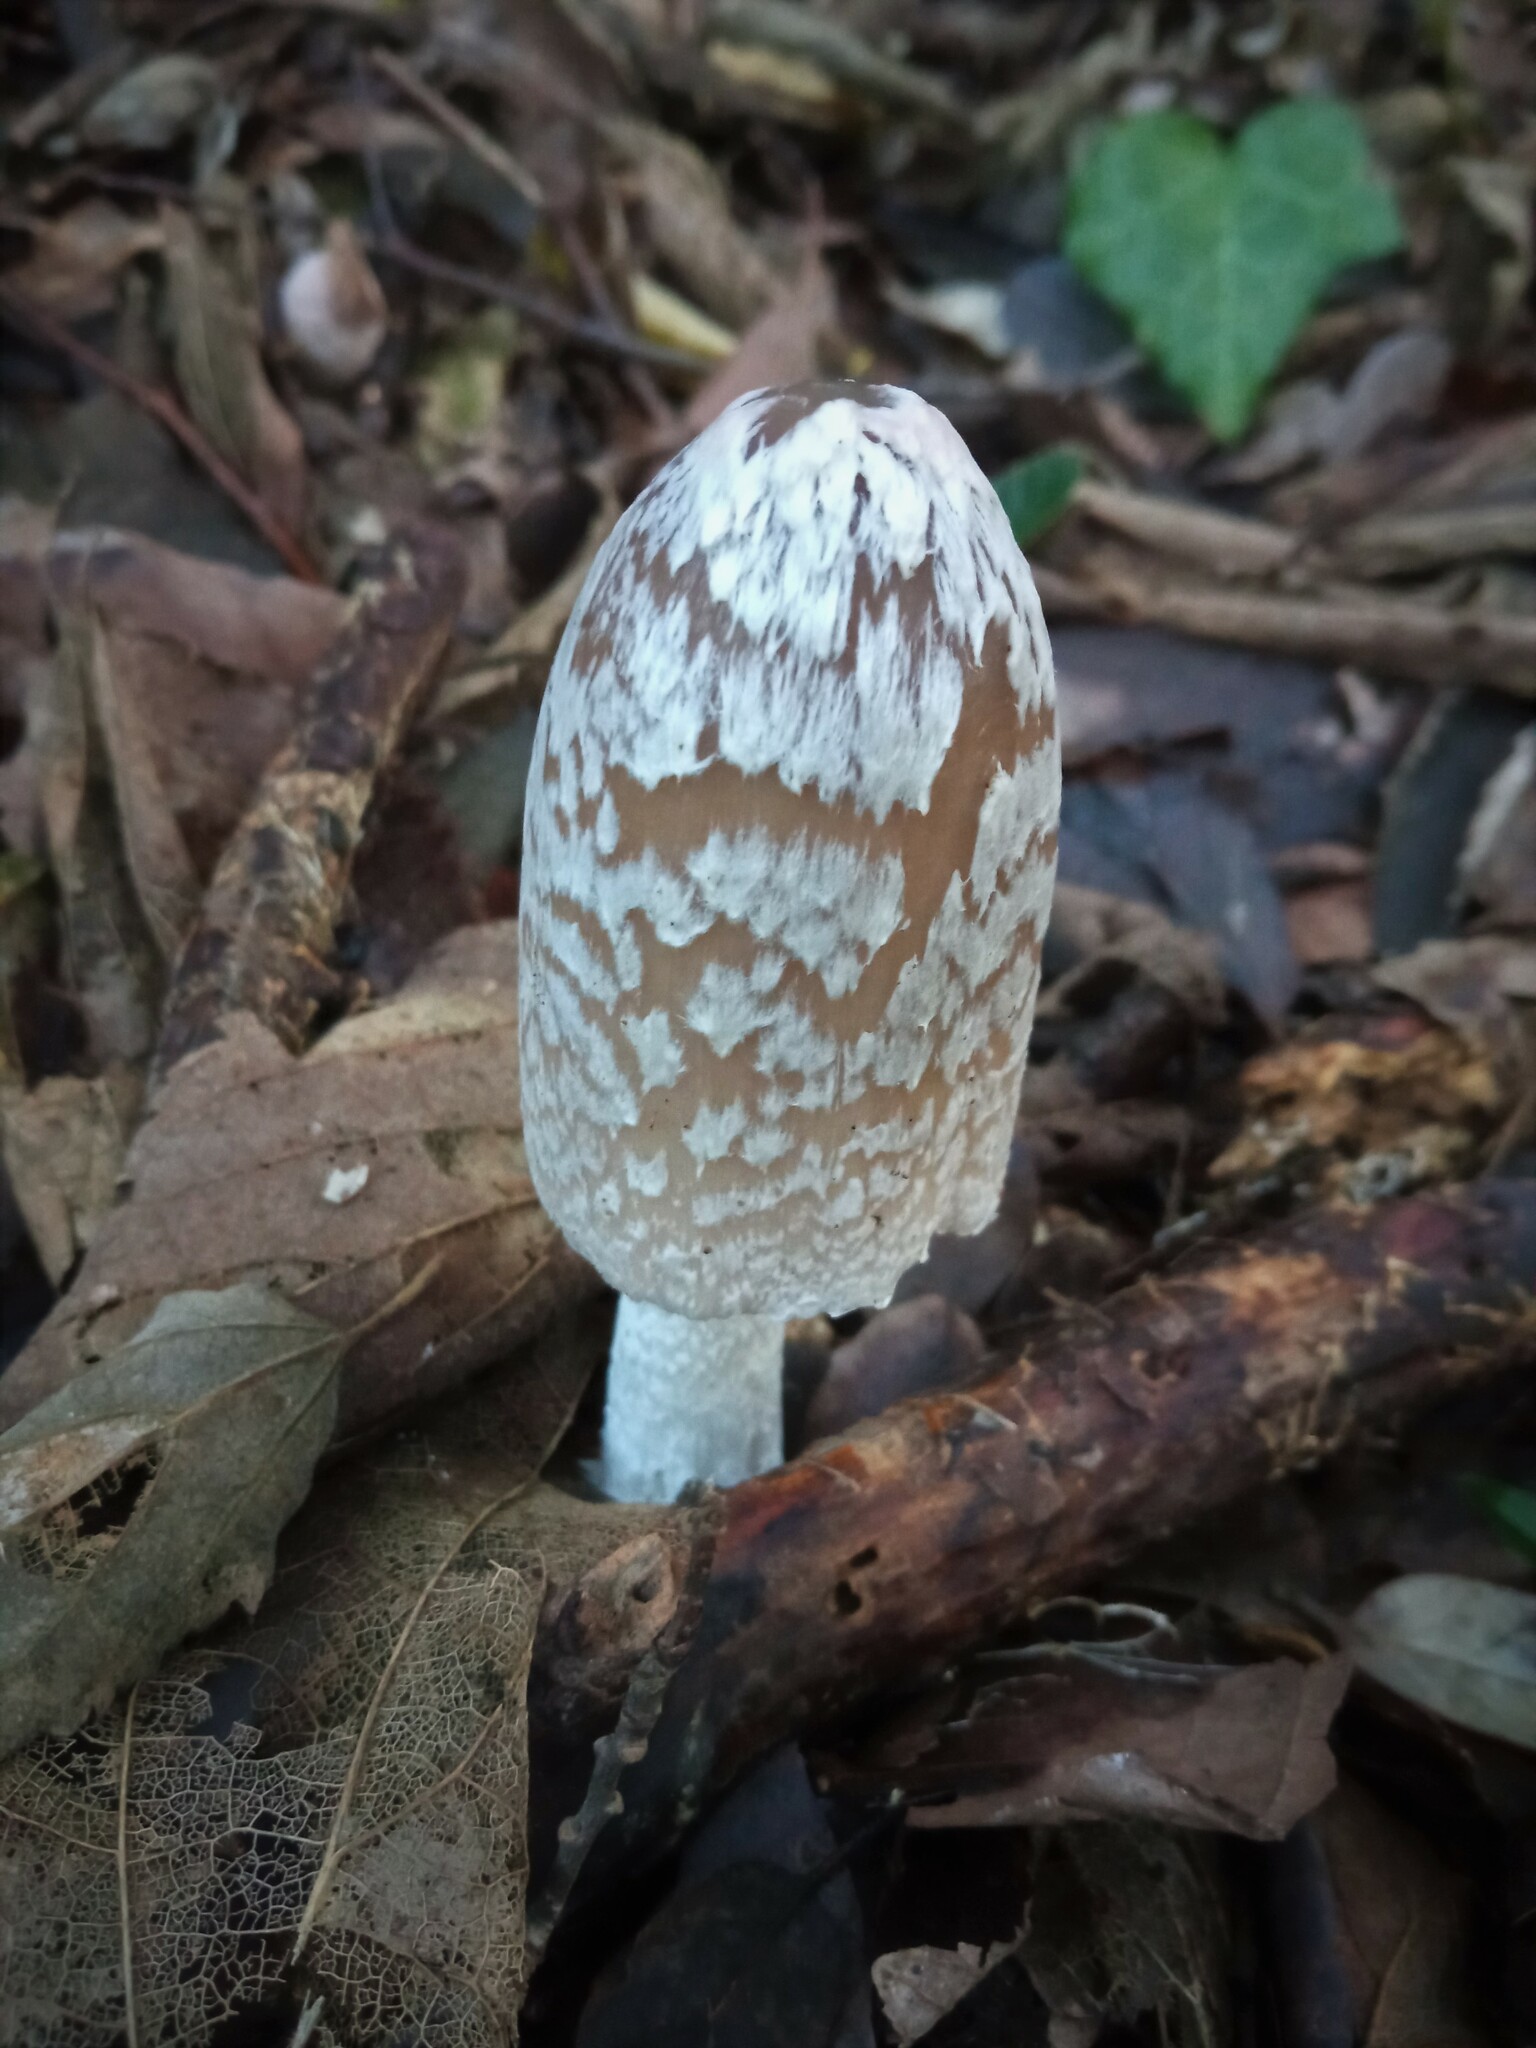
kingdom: Fungi
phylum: Basidiomycota
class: Agaricomycetes
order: Agaricales
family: Psathyrellaceae
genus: Coprinopsis
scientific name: Coprinopsis picacea
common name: Magpie inkcap
